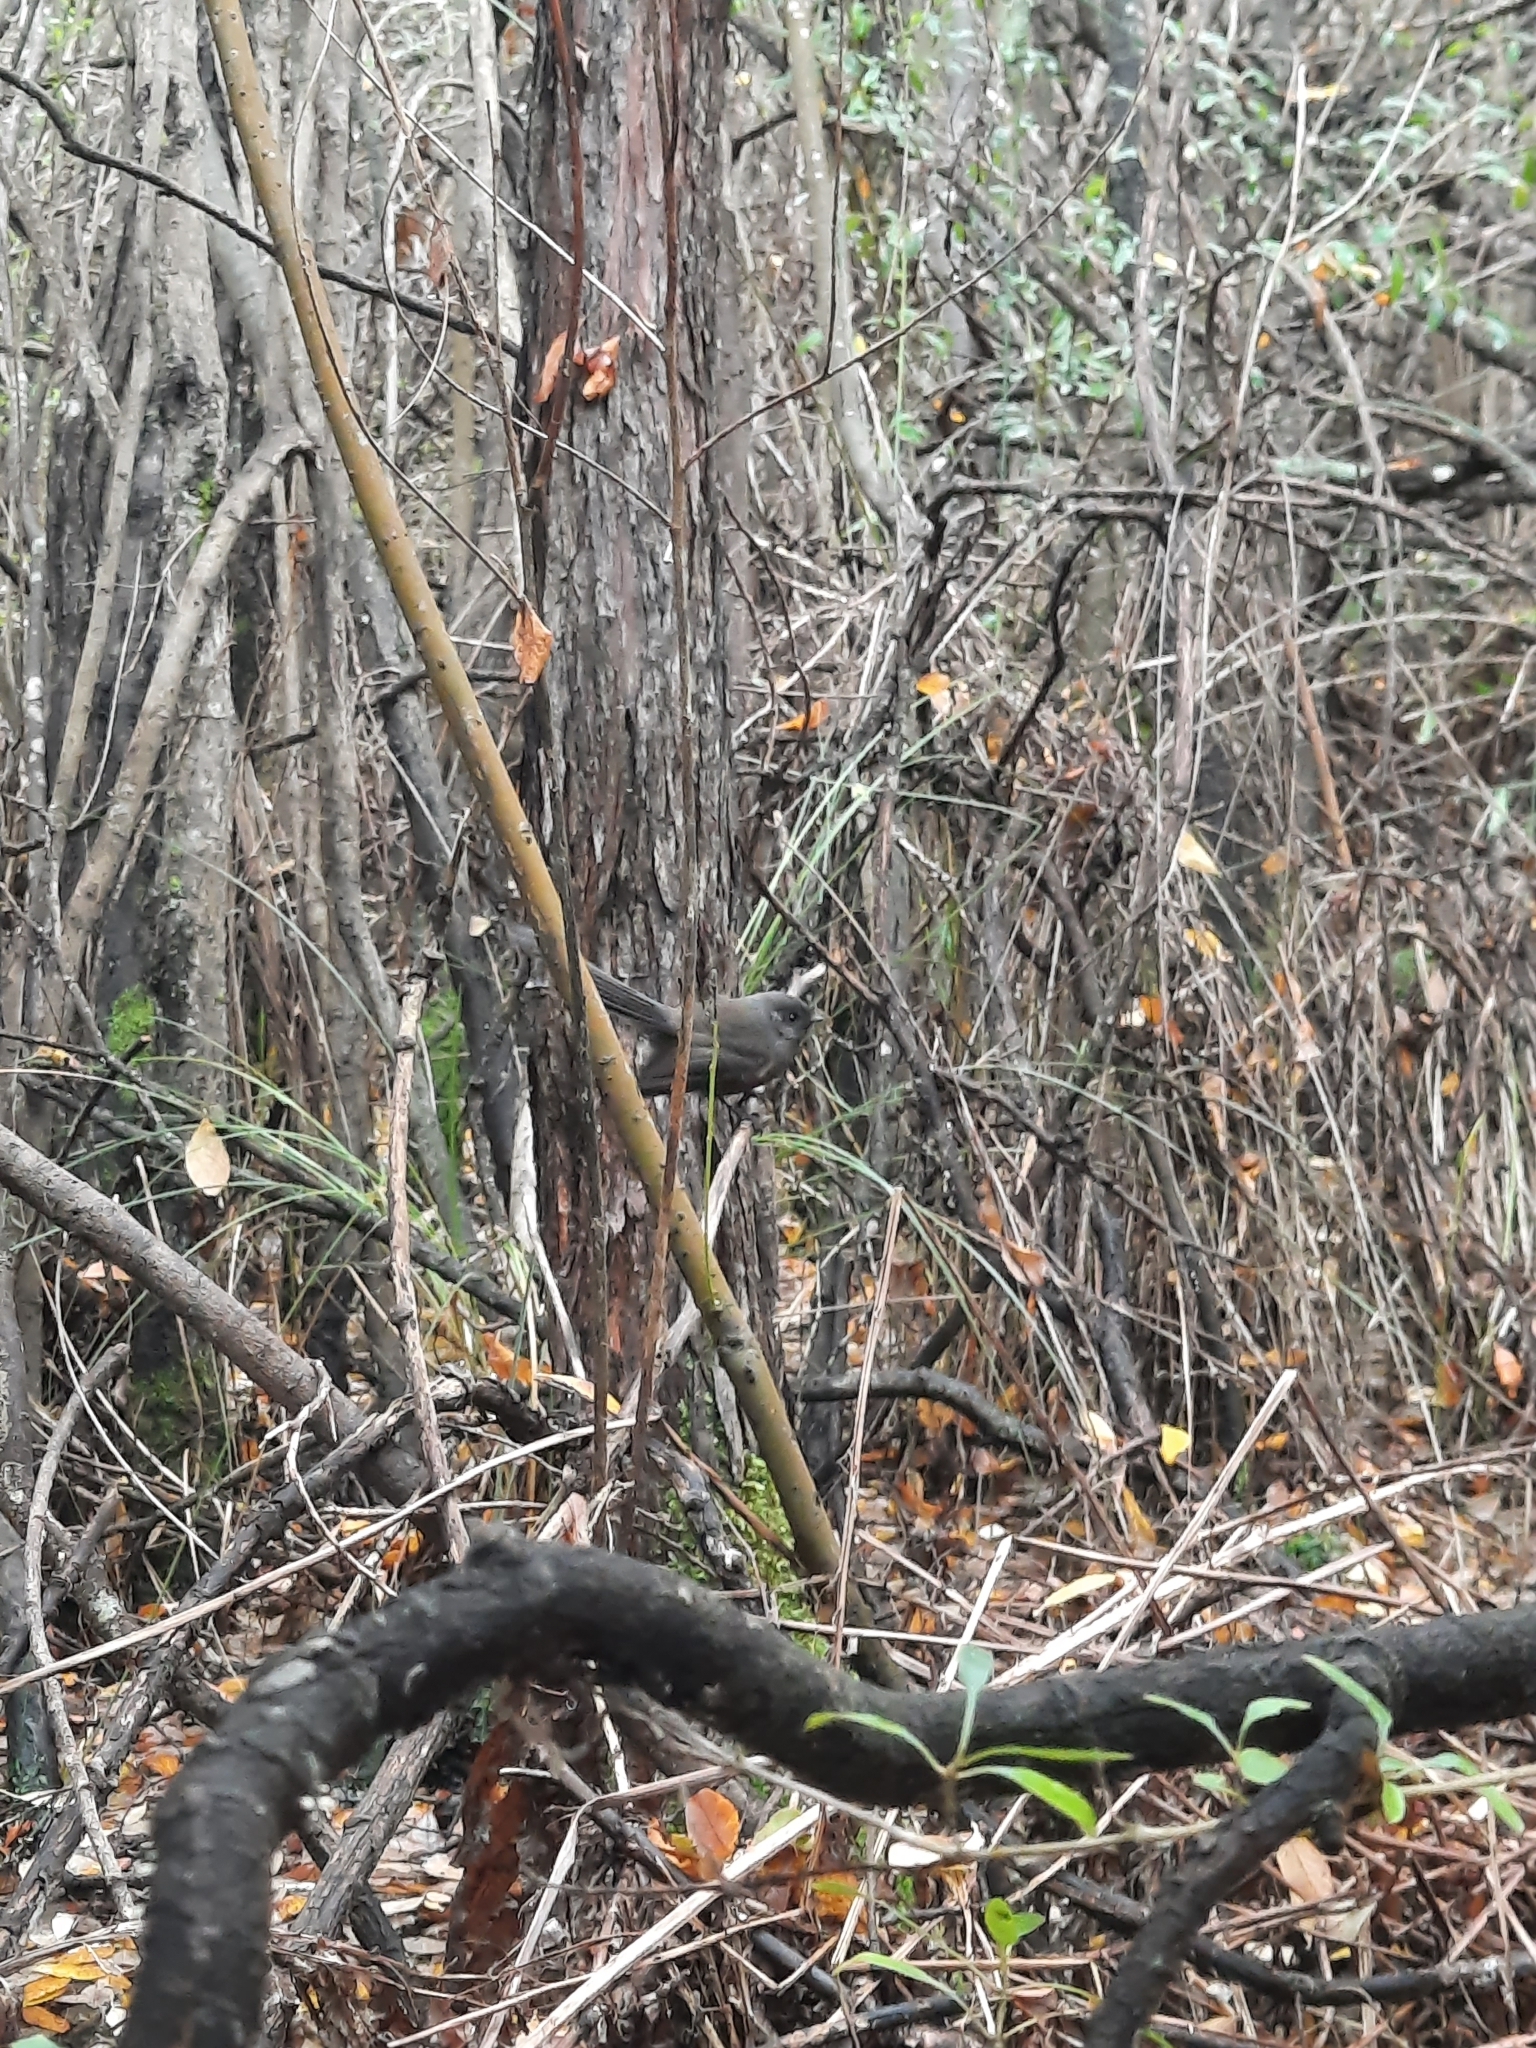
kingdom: Animalia
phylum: Chordata
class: Aves
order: Passeriformes
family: Rhipiduridae
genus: Rhipidura
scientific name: Rhipidura fuliginosa
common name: New zealand fantail
